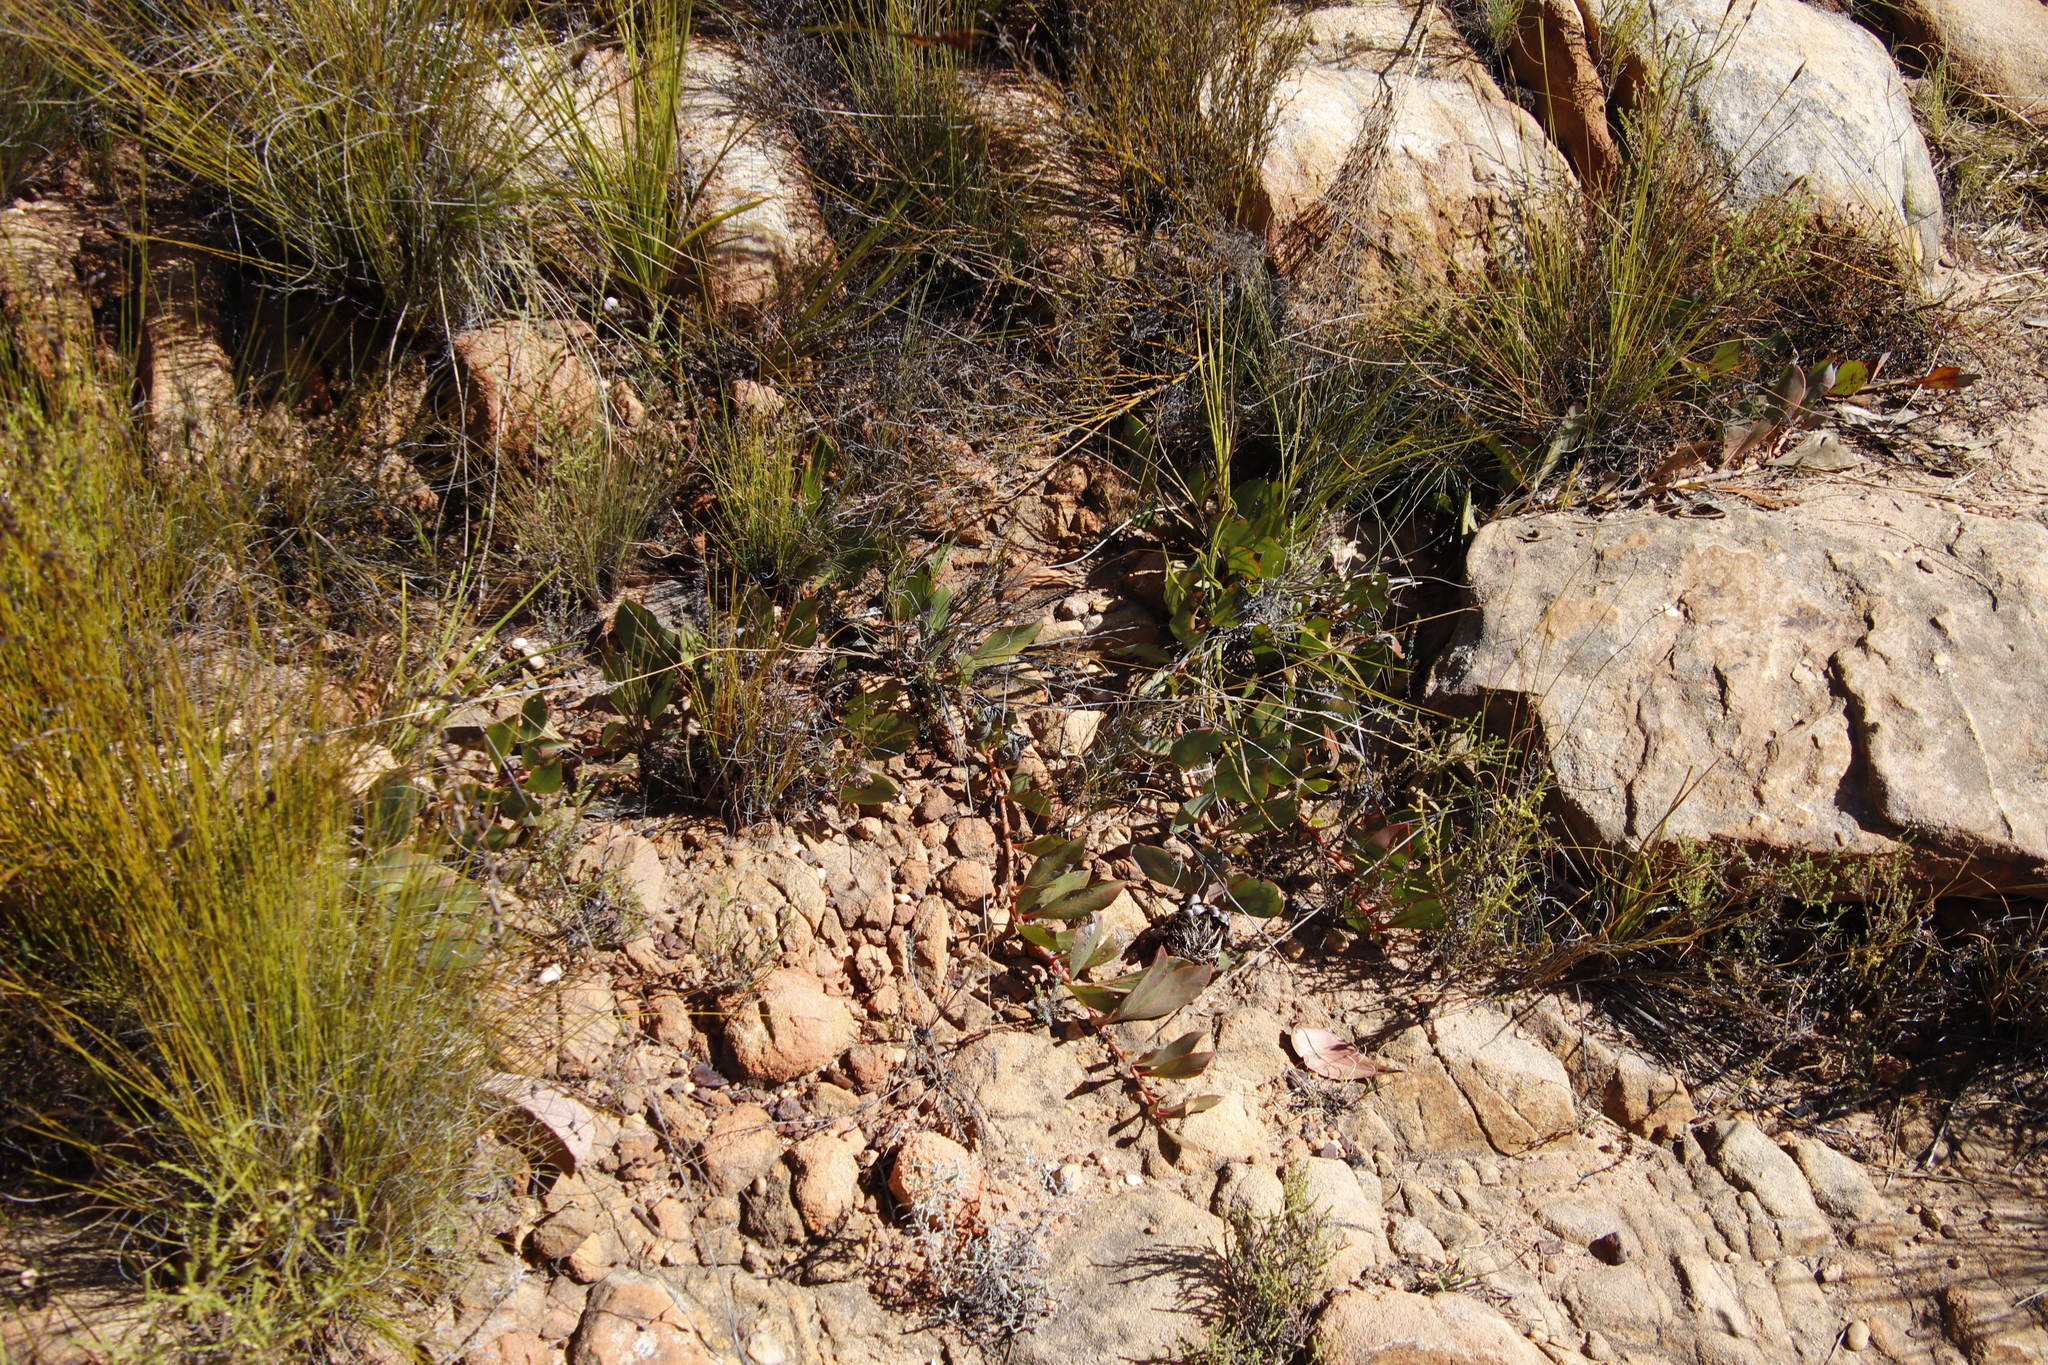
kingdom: Plantae
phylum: Tracheophyta
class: Magnoliopsida
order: Proteales
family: Proteaceae
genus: Protea
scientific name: Protea acaulos
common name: Common ground sugarbush
